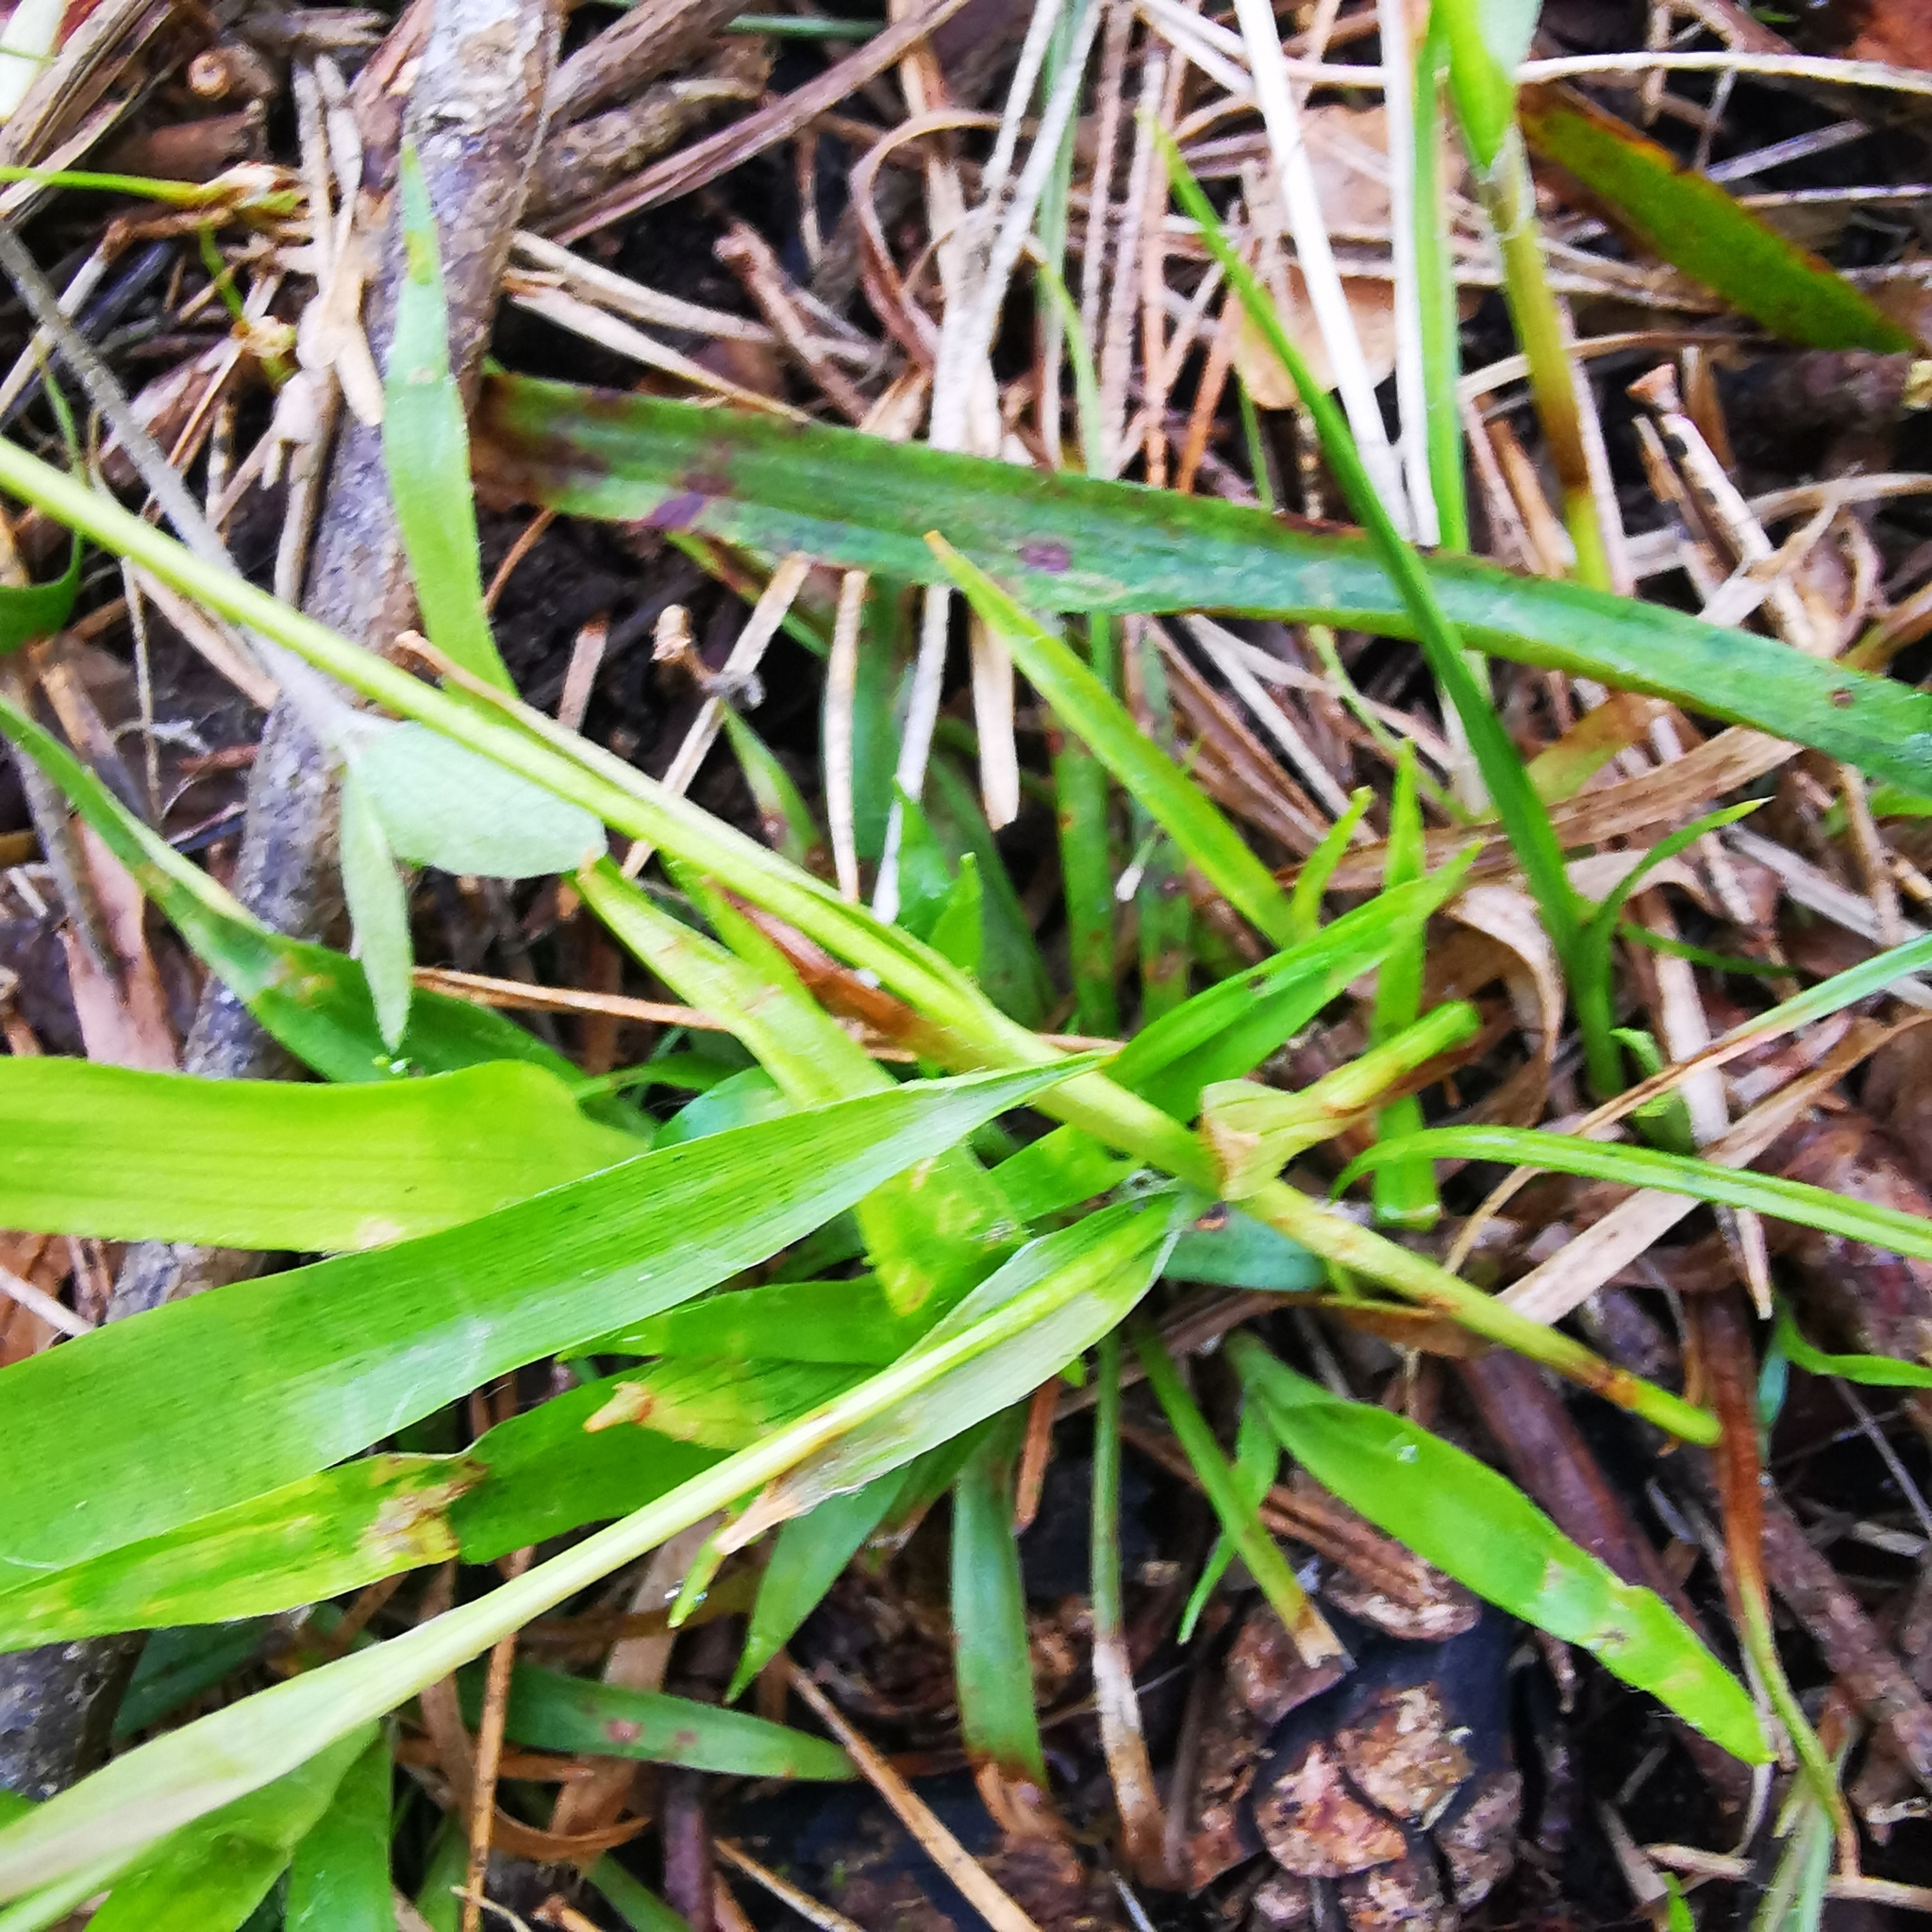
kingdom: Plantae
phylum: Tracheophyta
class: Liliopsida
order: Poales
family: Juncaceae
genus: Luzula
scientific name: Luzula pilosa
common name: Hairy wood-rush
